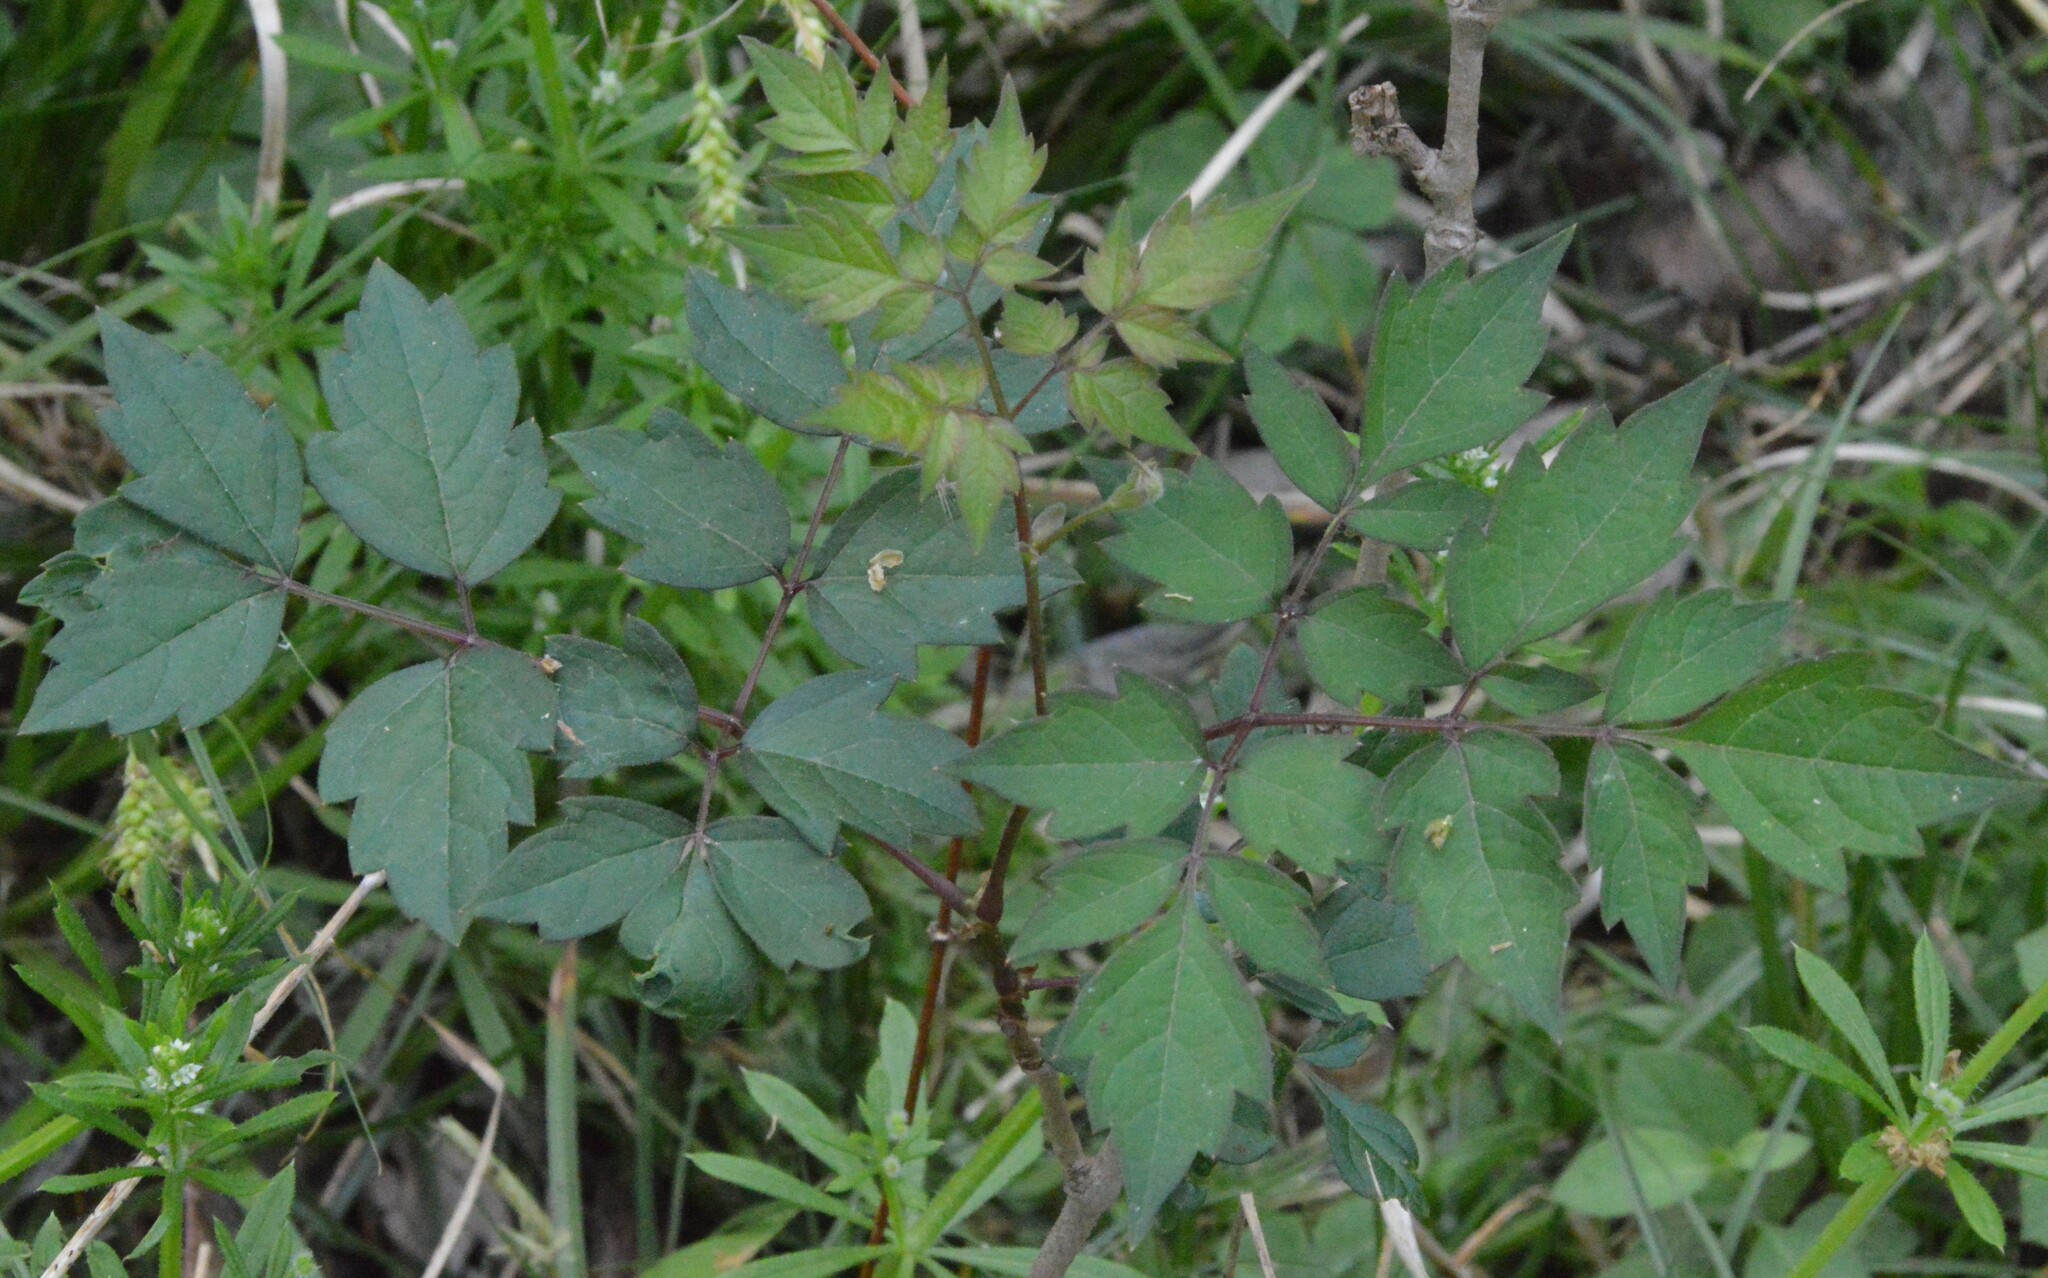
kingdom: Plantae
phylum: Tracheophyta
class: Magnoliopsida
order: Vitales
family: Vitaceae
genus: Nekemias
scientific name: Nekemias arborea
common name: Peppervine
